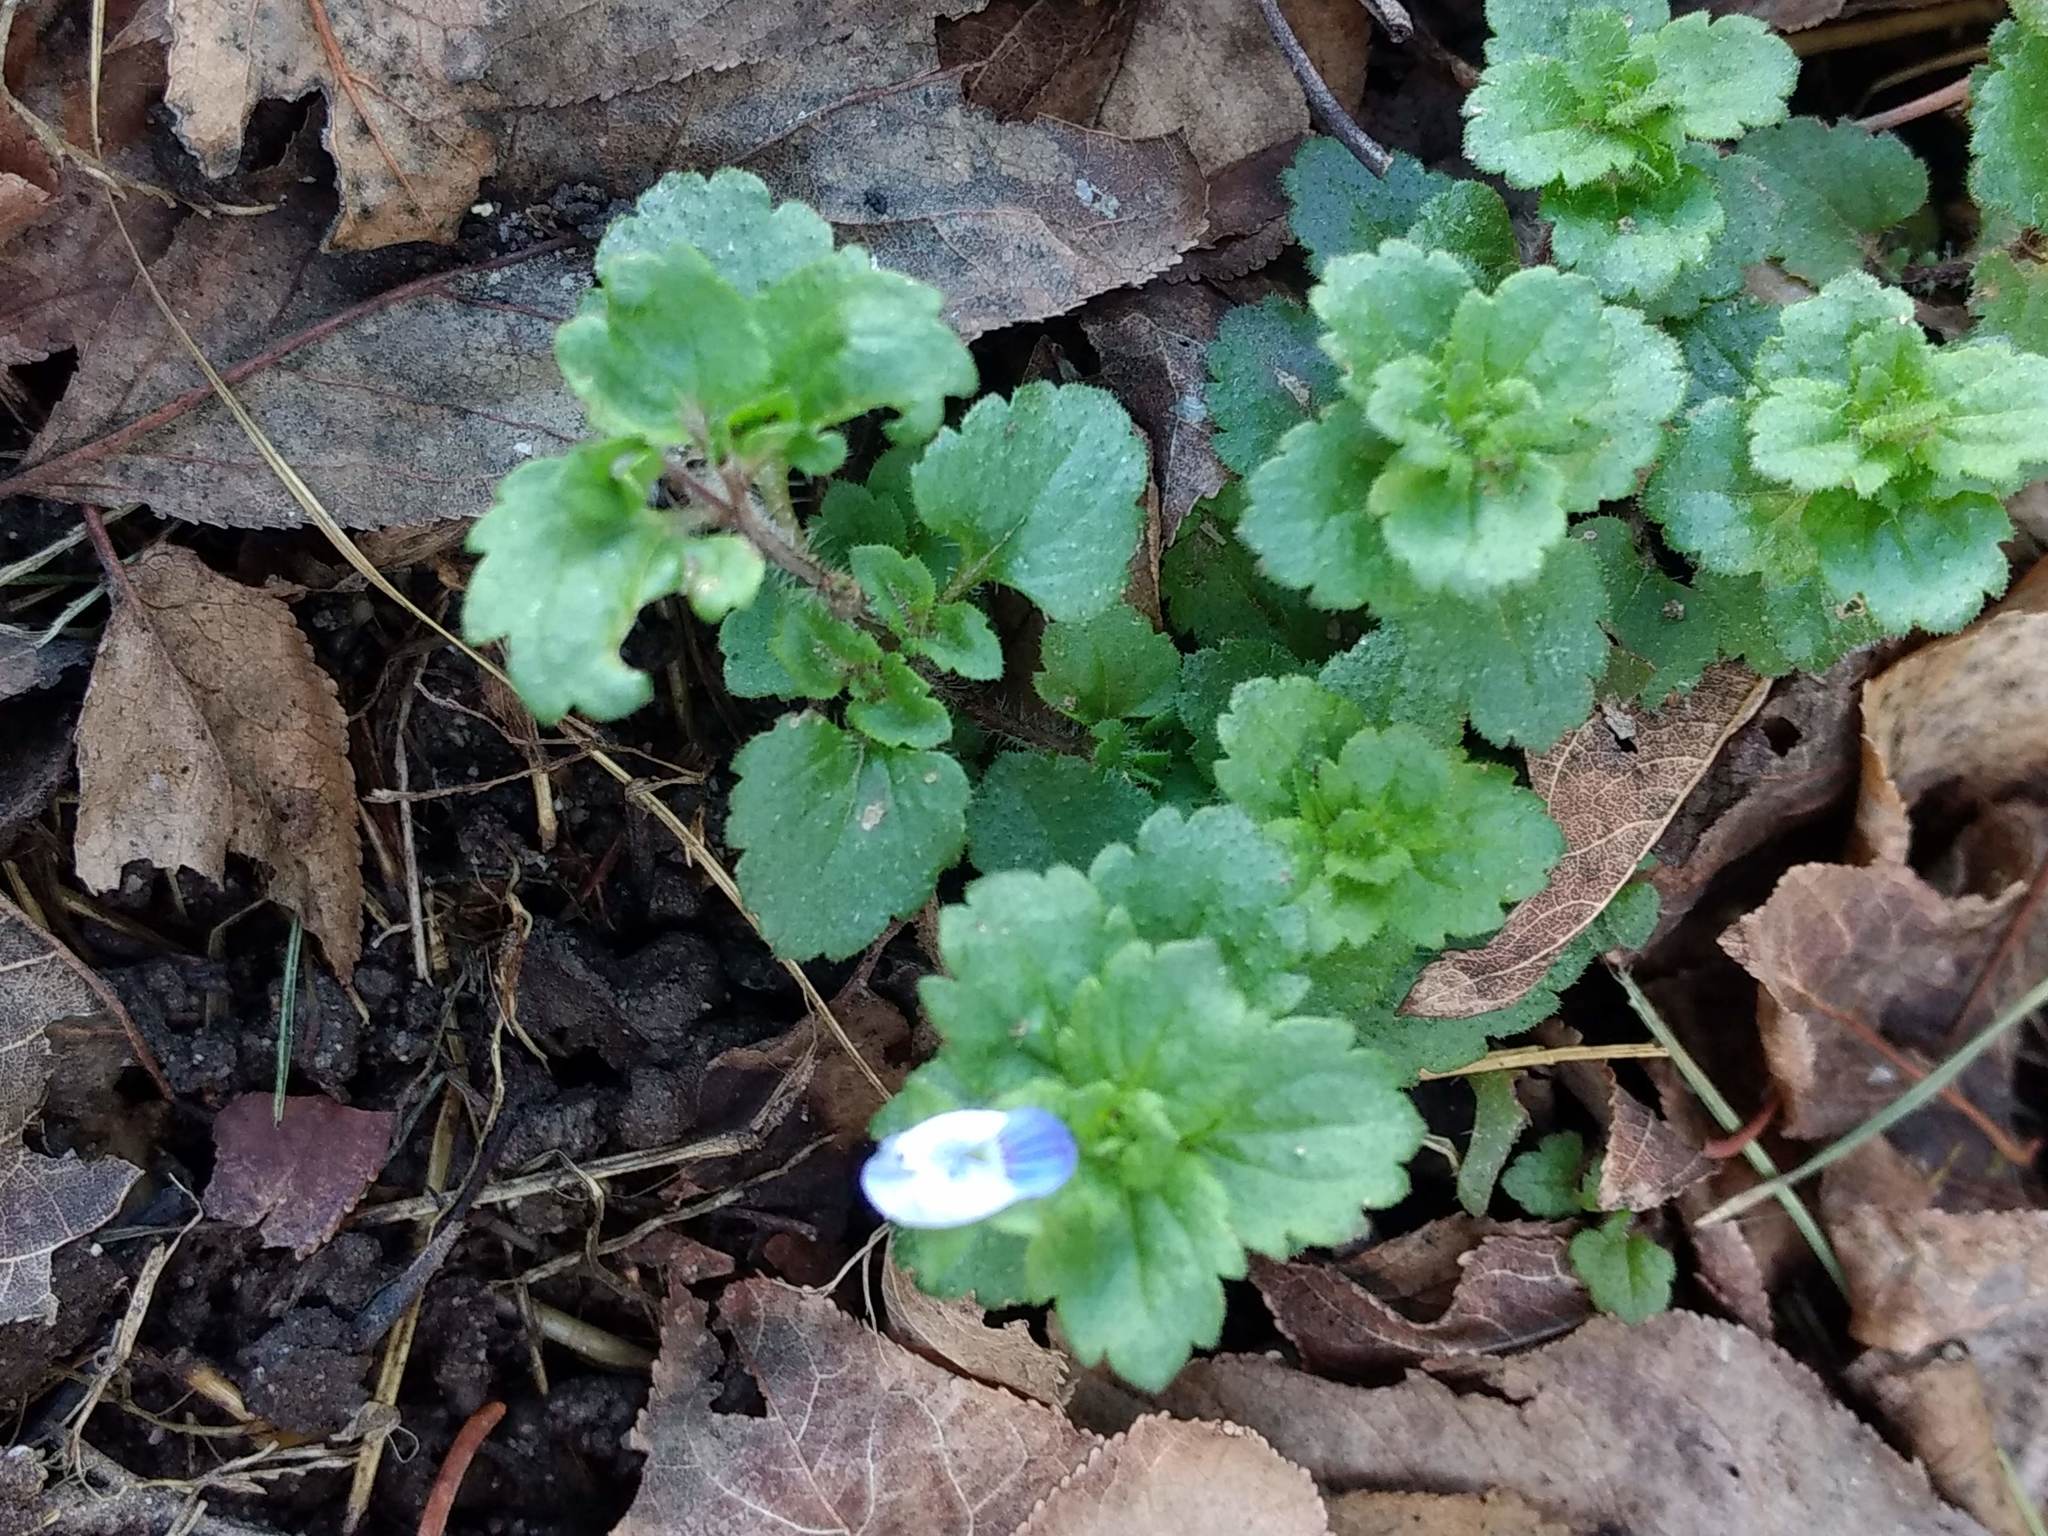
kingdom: Plantae
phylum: Tracheophyta
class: Magnoliopsida
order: Lamiales
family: Plantaginaceae
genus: Veronica
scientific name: Veronica persica
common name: Common field-speedwell
